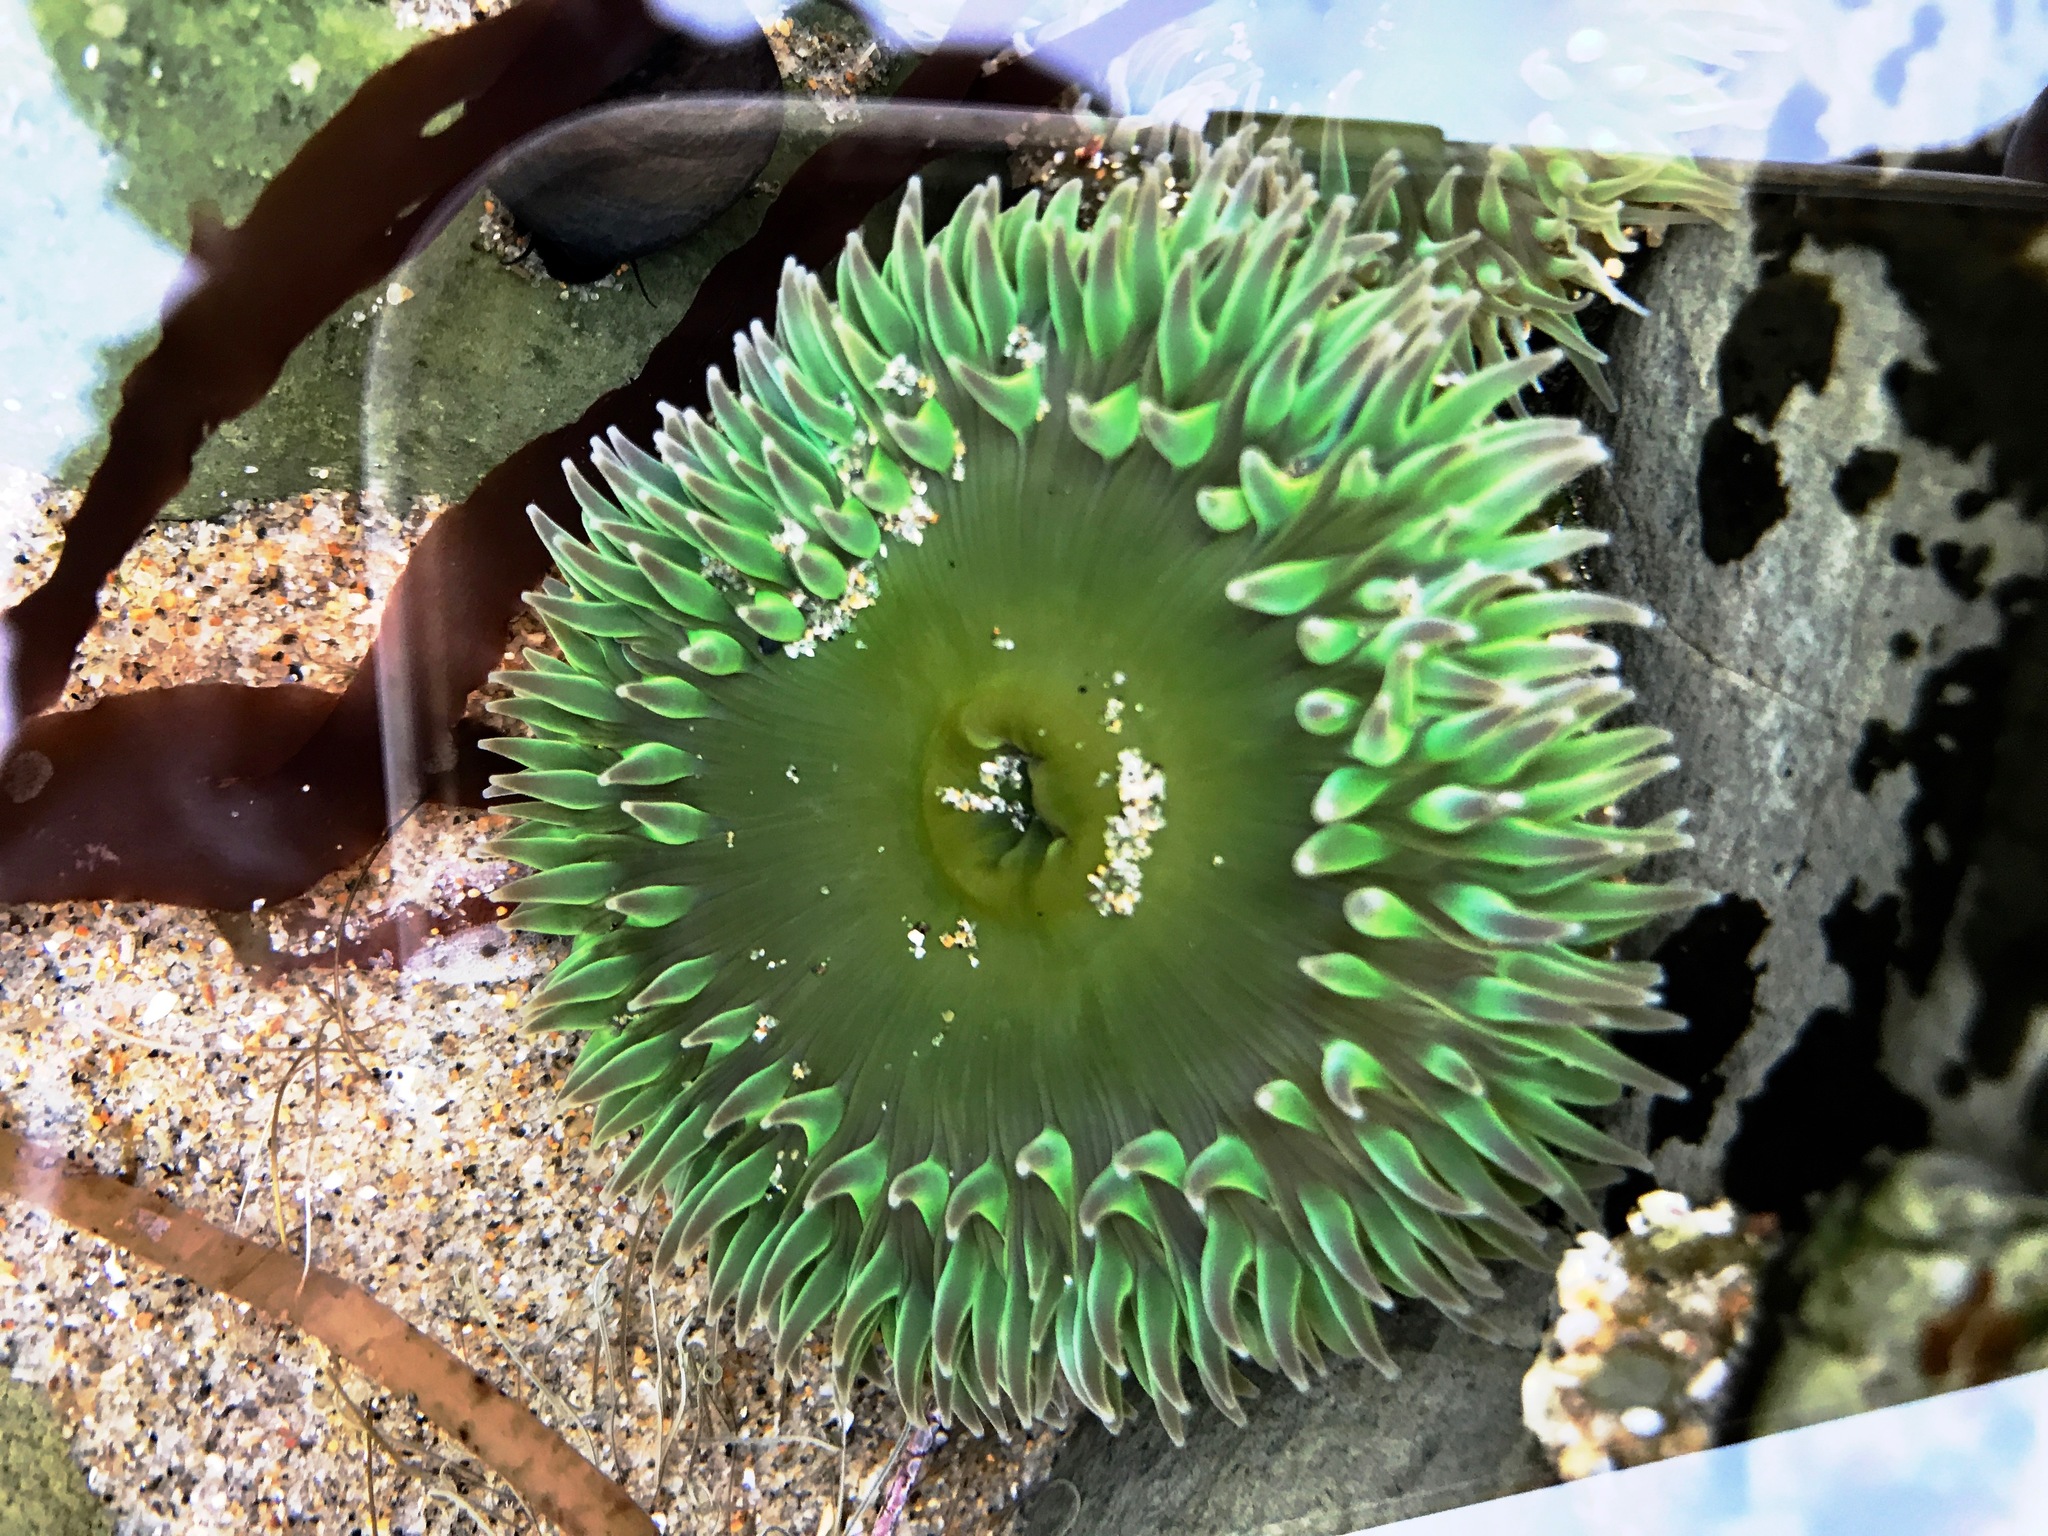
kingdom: Animalia
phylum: Cnidaria
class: Anthozoa
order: Actiniaria
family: Actiniidae
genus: Anthopleura
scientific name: Anthopleura xanthogrammica
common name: Giant green anemone
